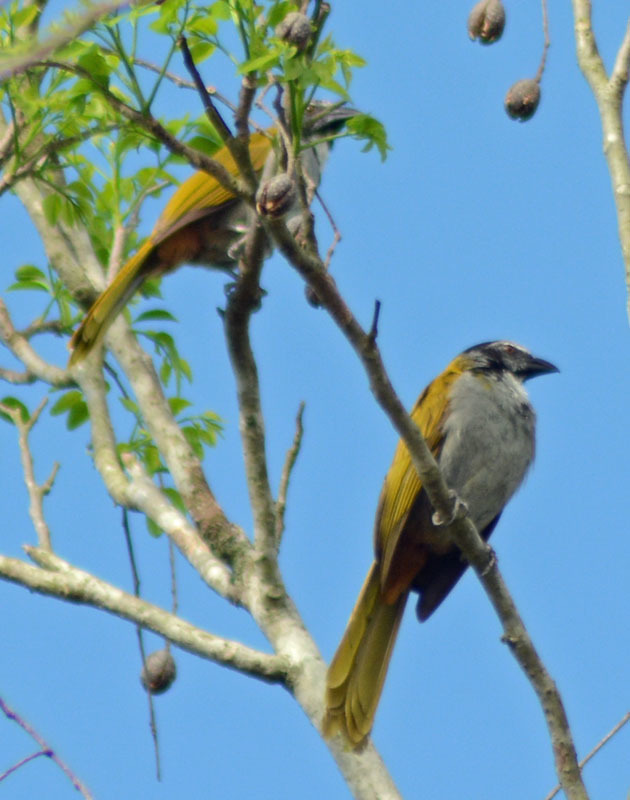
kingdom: Animalia
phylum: Chordata
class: Aves
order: Passeriformes
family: Thraupidae
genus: Saltator
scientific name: Saltator atriceps
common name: Black-headed saltator
